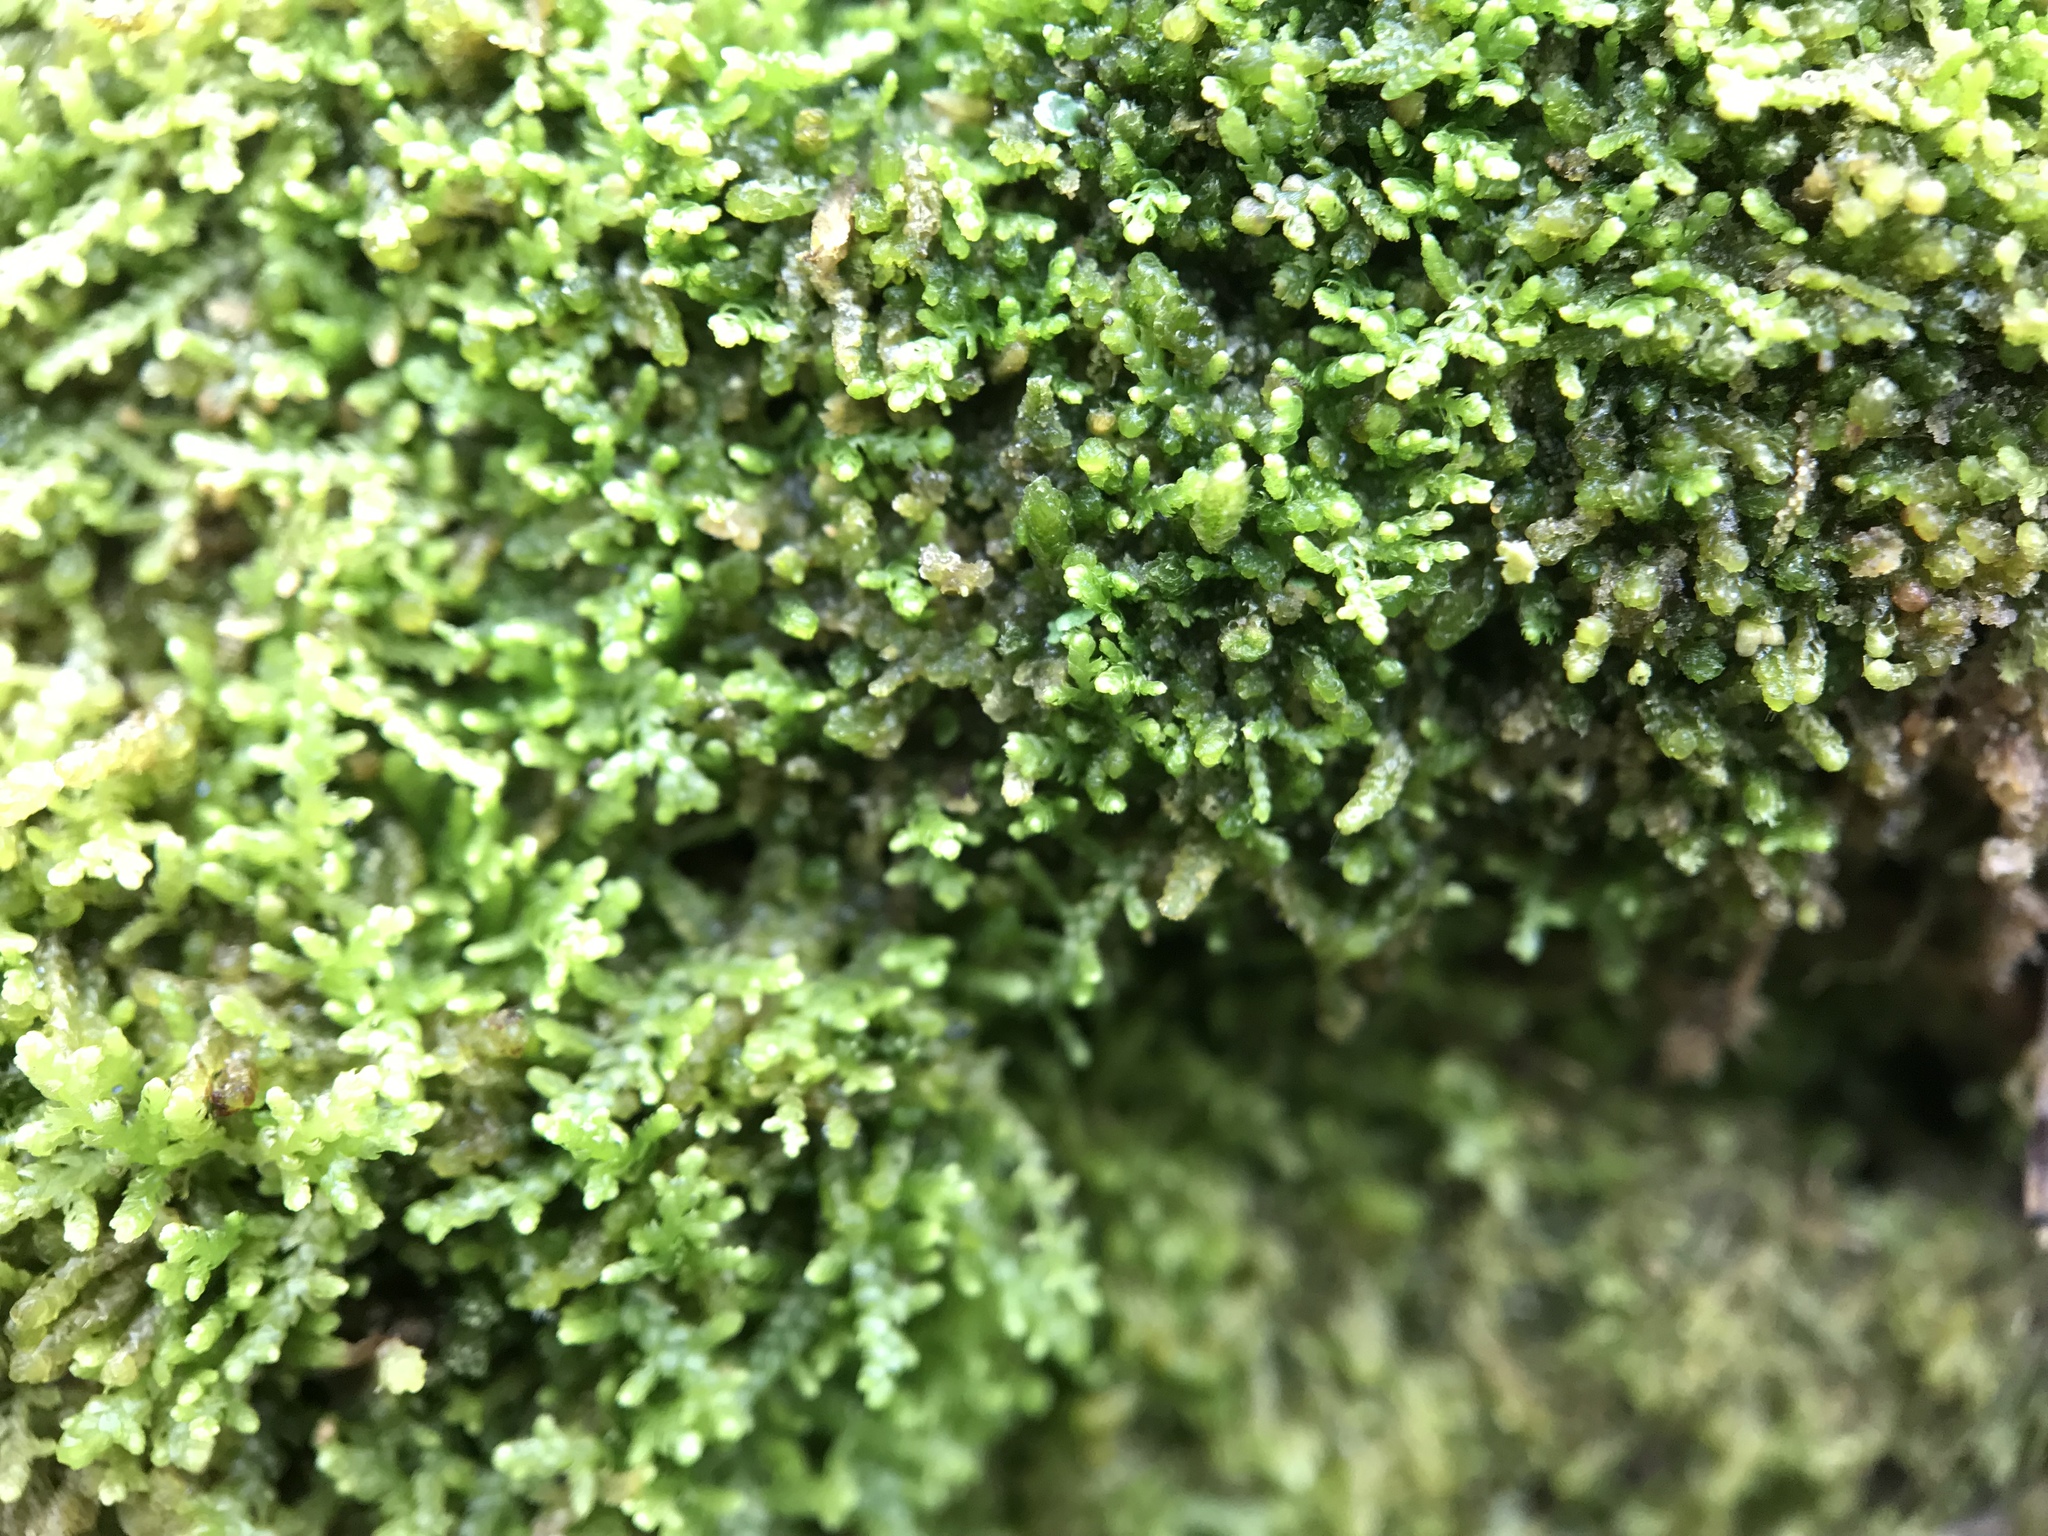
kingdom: Plantae
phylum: Marchantiophyta
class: Jungermanniopsida
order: Jungermanniales
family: Lepidoziaceae
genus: Lepidozia
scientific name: Lepidozia reptans
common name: Creeping fingerwort
